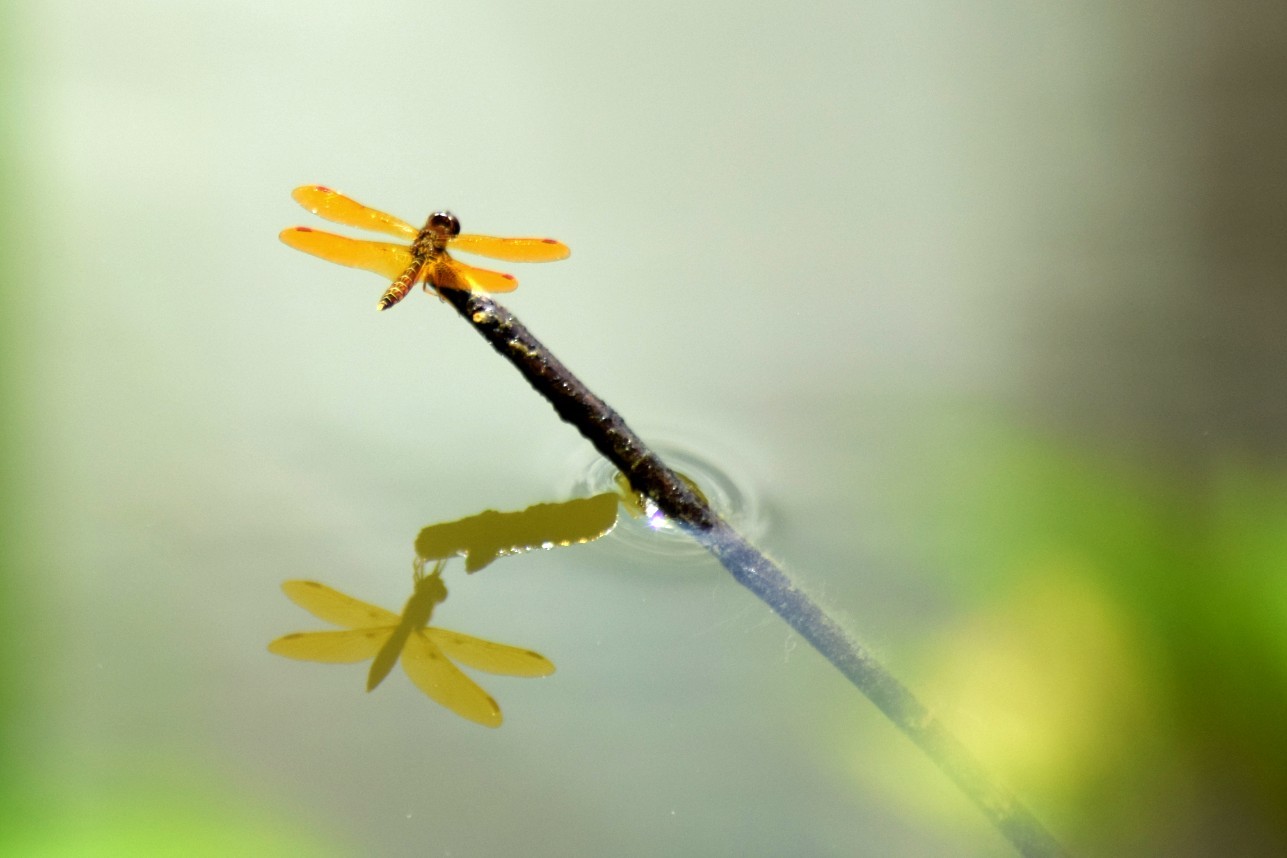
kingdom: Animalia
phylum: Arthropoda
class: Insecta
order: Odonata
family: Libellulidae
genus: Perithemis
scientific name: Perithemis tenera
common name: Eastern amberwing
